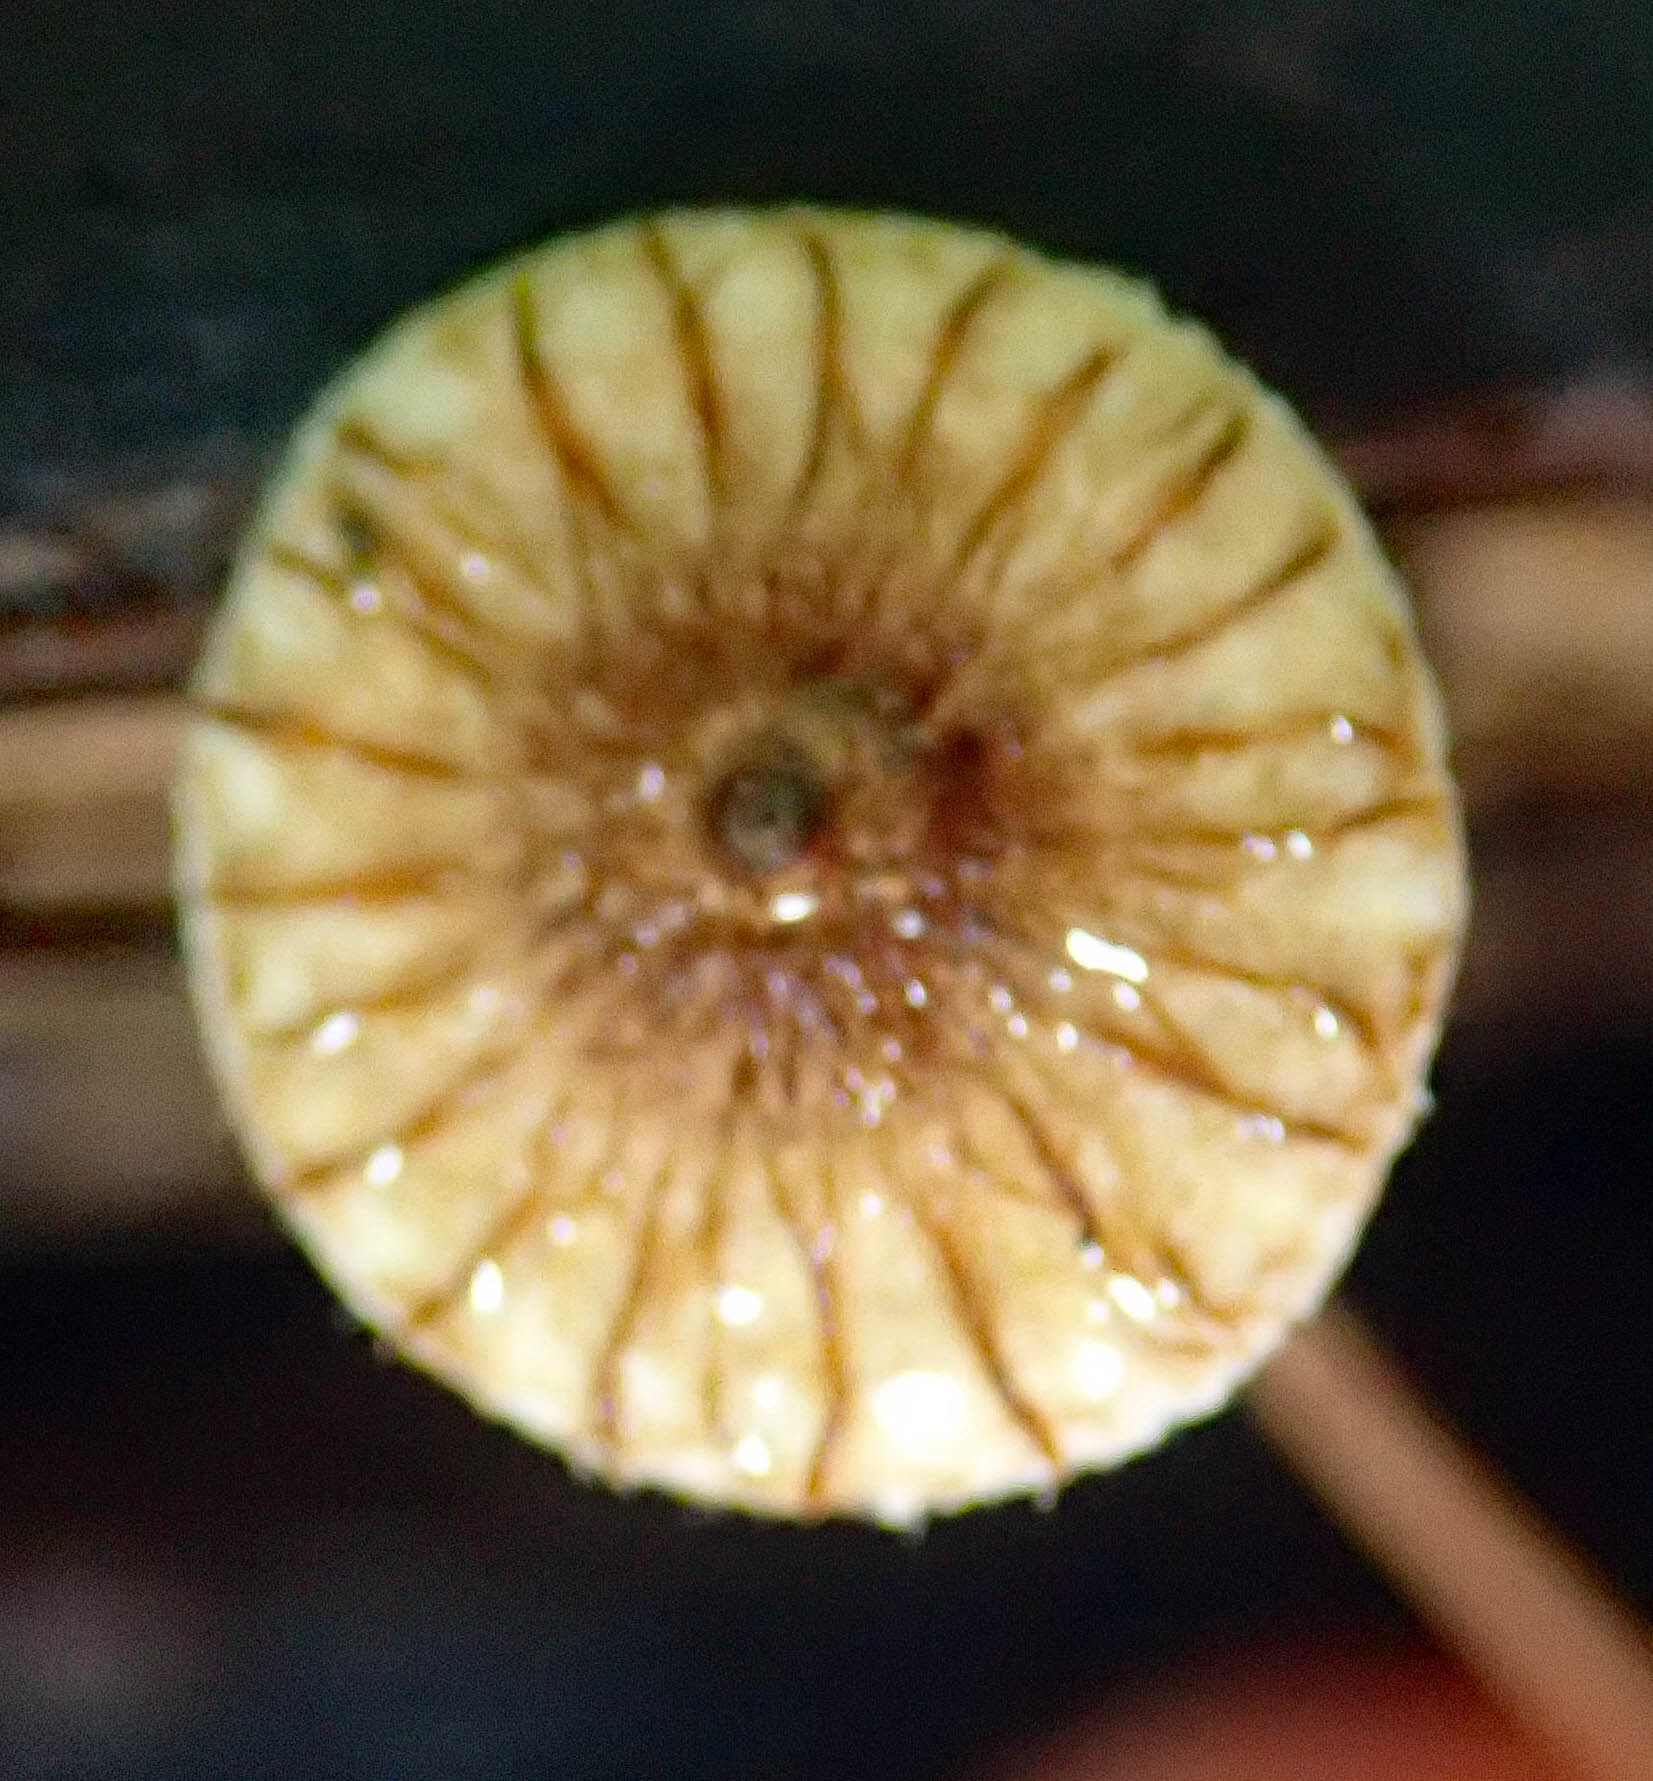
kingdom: Fungi
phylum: Basidiomycota
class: Agaricomycetes
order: Agaricales
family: Marasmiaceae
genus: Crinipellis
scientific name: Crinipellis procera
